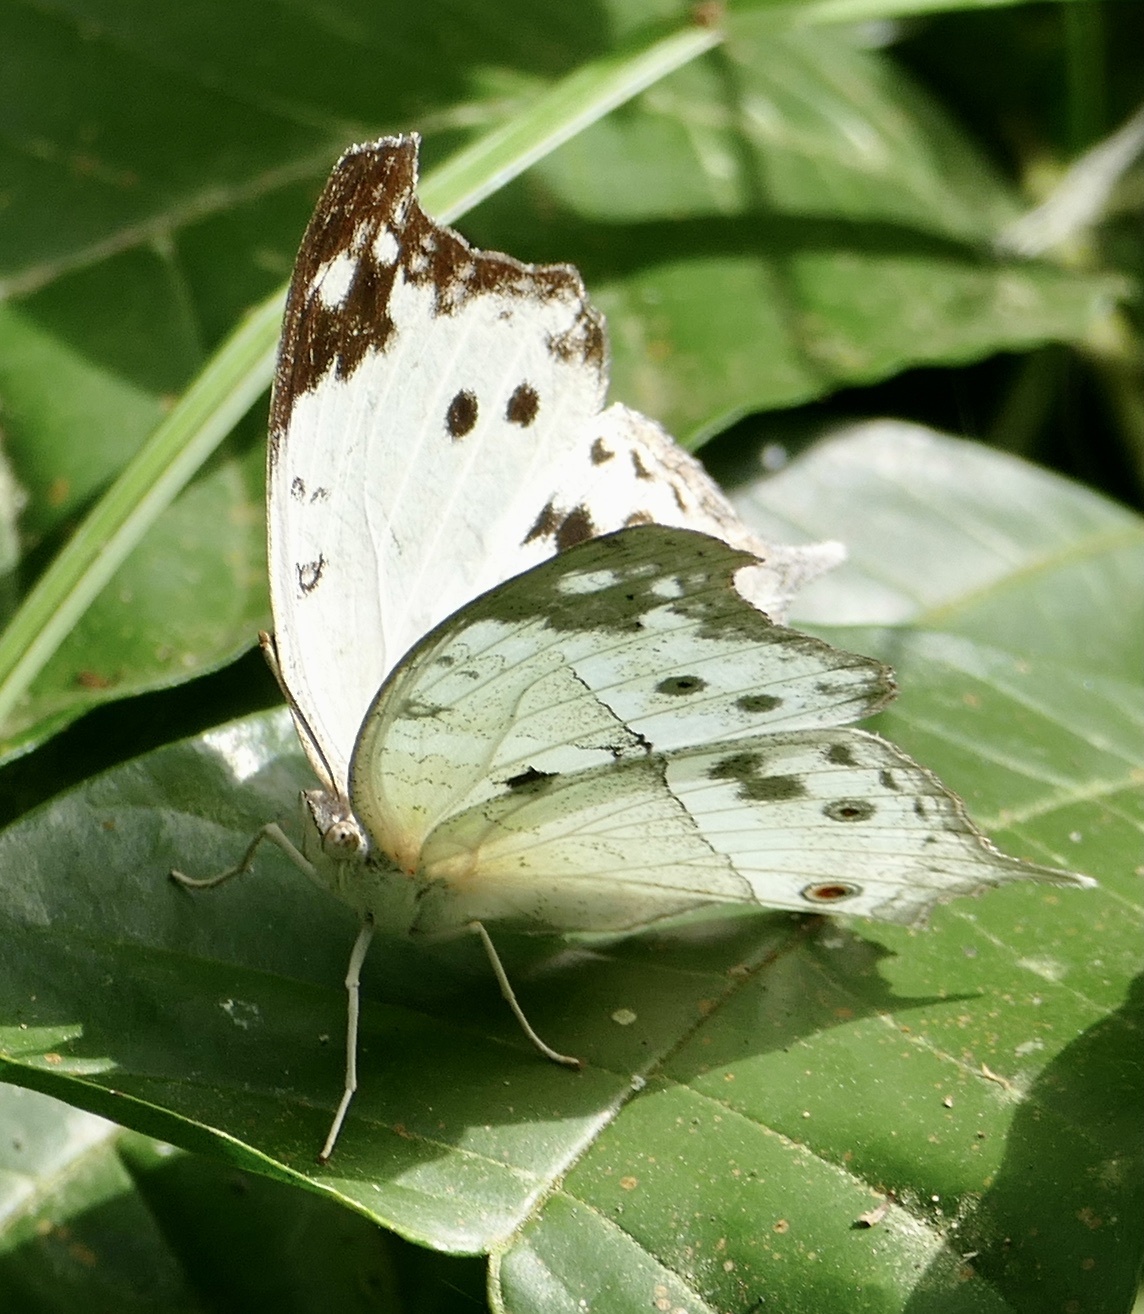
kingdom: Animalia
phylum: Arthropoda
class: Insecta
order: Lepidoptera
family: Nymphalidae
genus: Salamis
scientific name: Salamis Protogoniomorpha parhassus
